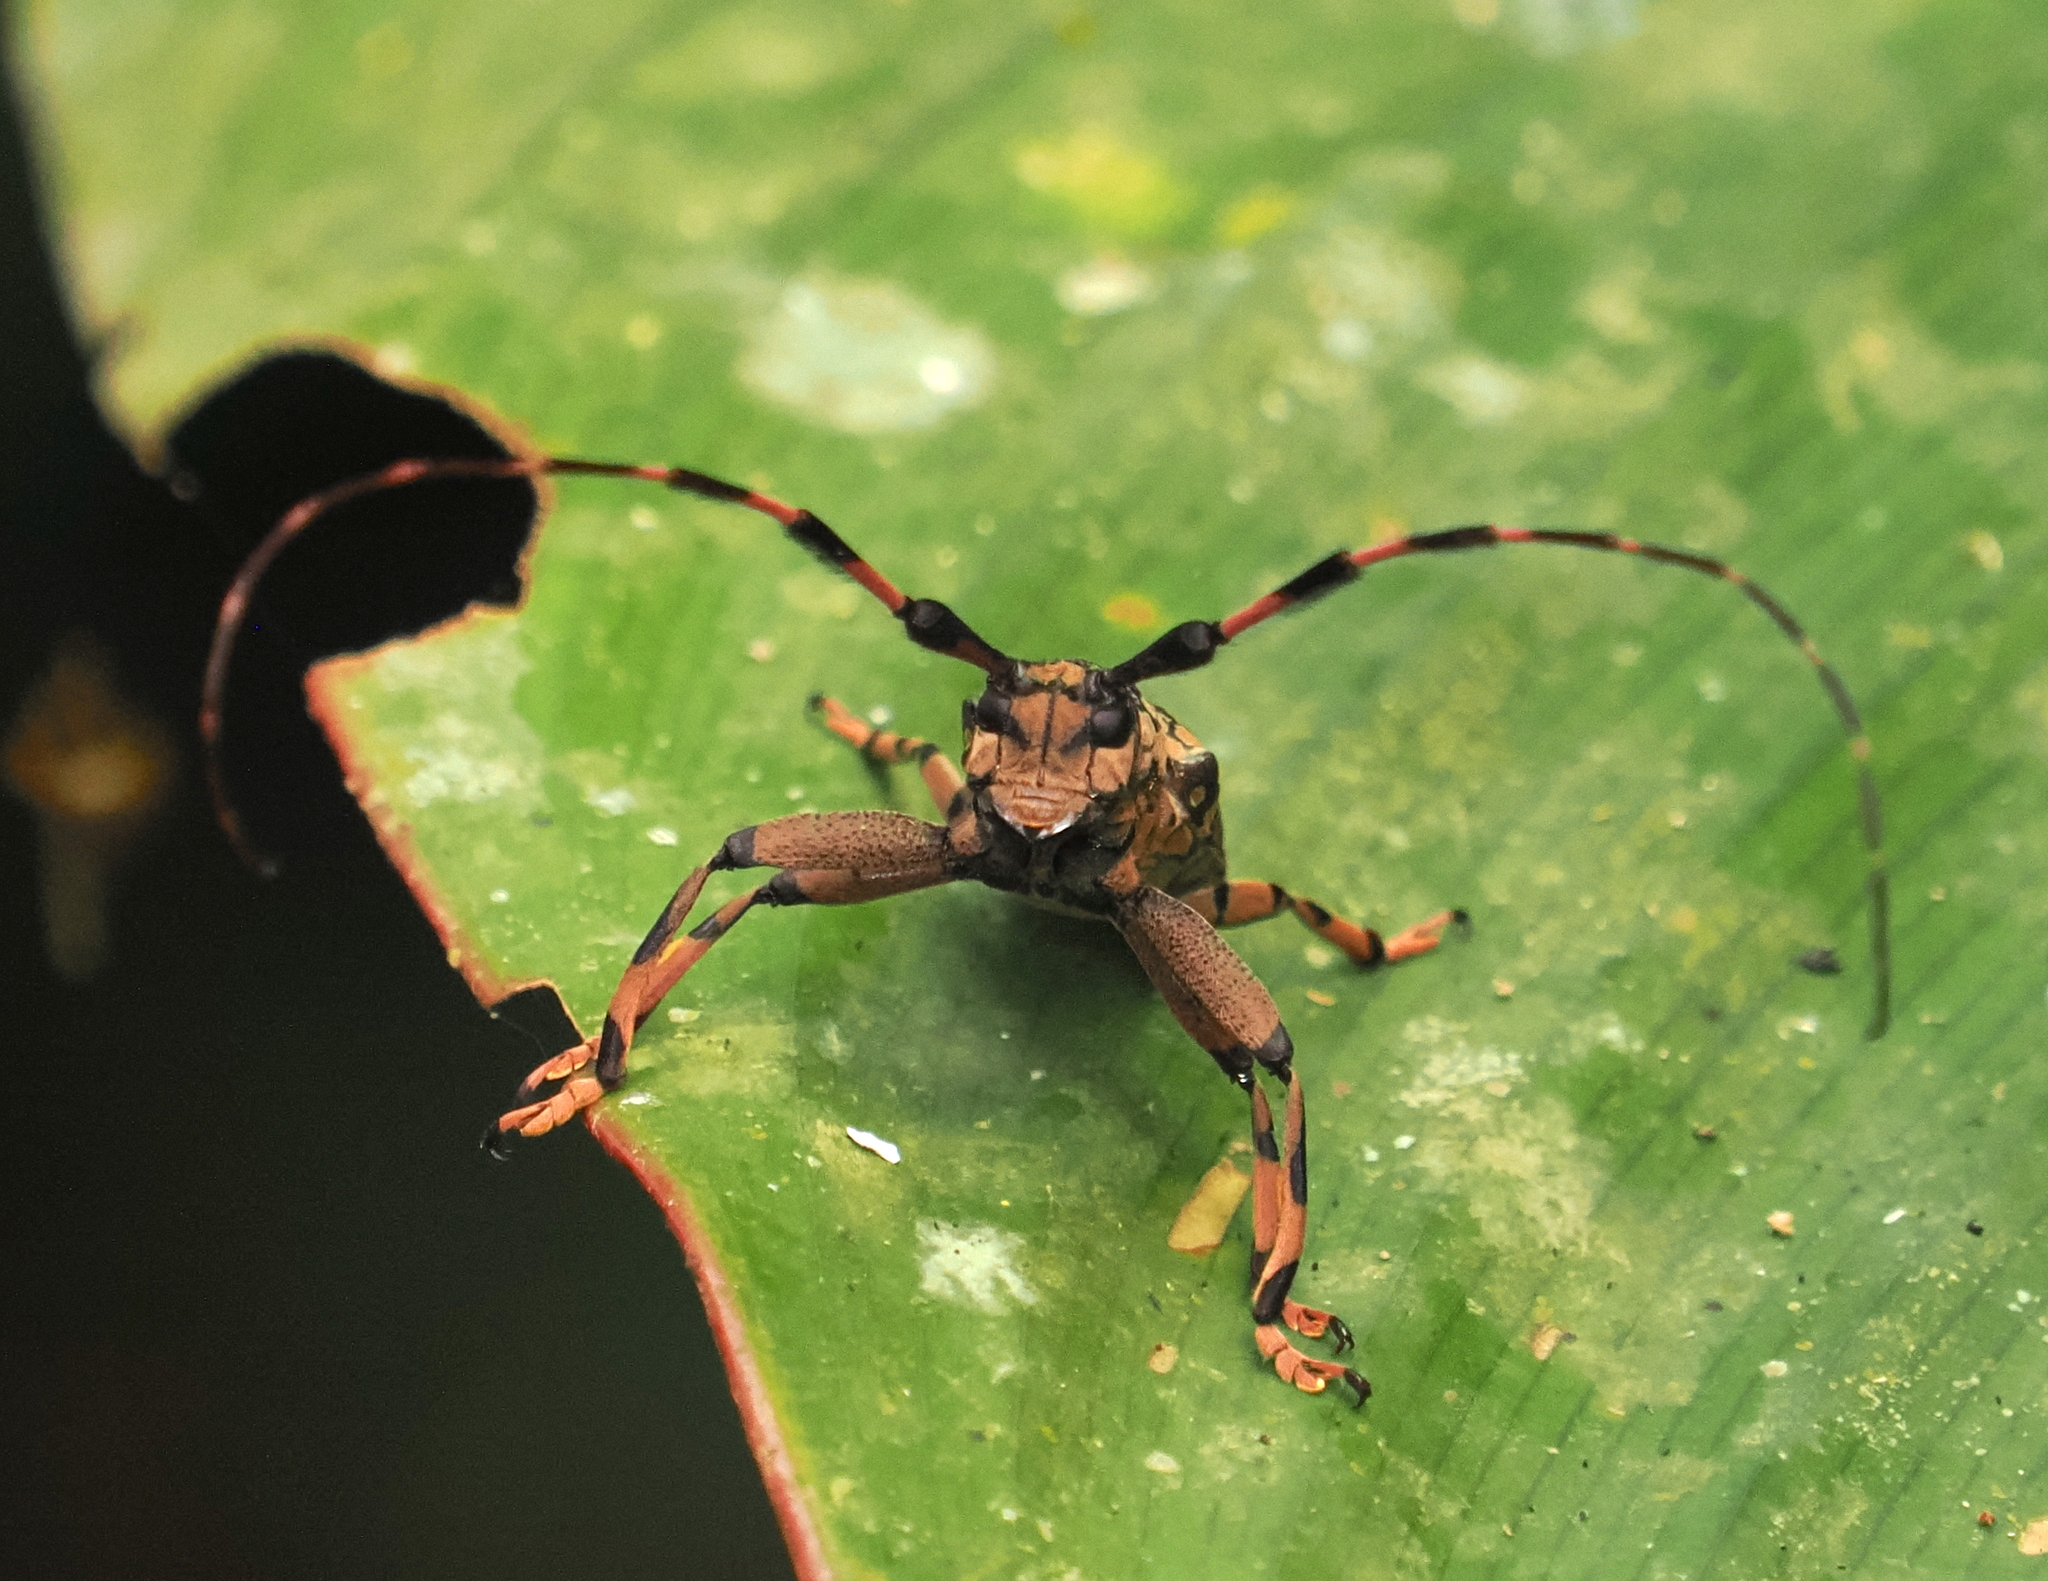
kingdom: Animalia
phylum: Arthropoda
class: Insecta
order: Coleoptera
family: Cerambycidae
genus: Golsinda
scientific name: Golsinda basicornis
